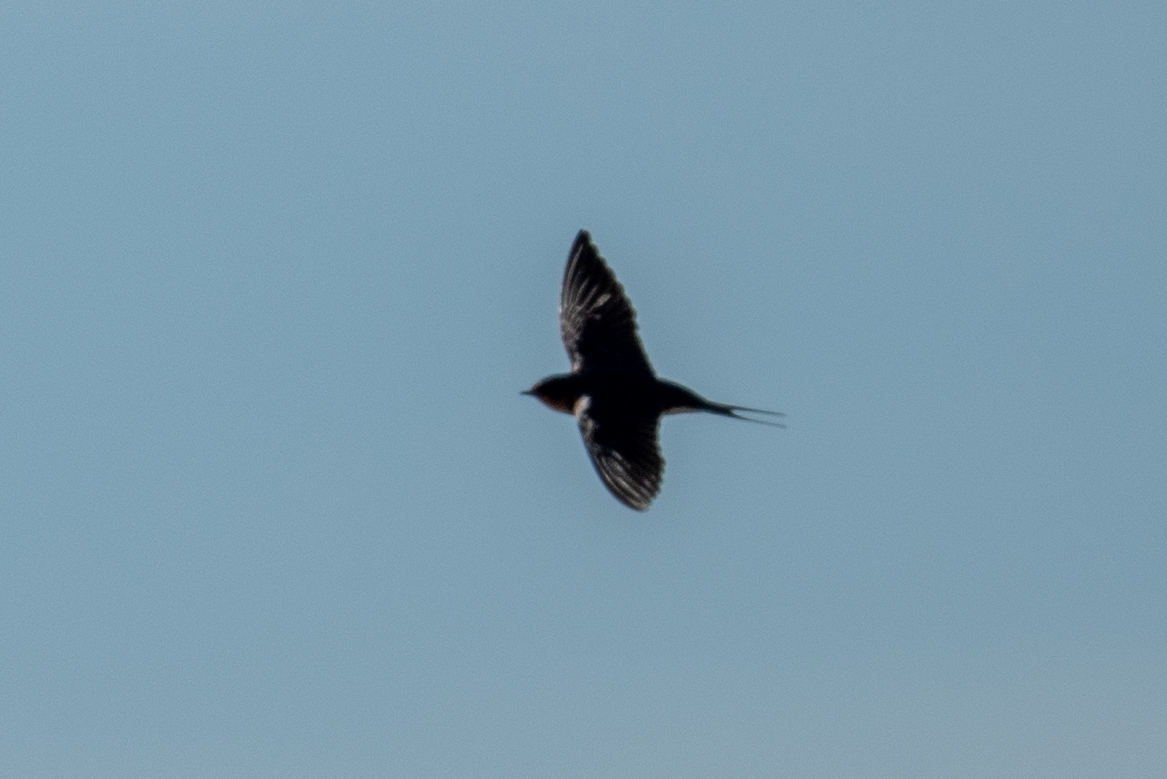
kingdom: Animalia
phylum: Chordata
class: Aves
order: Passeriformes
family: Hirundinidae
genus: Hirundo
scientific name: Hirundo rustica
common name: Barn swallow
